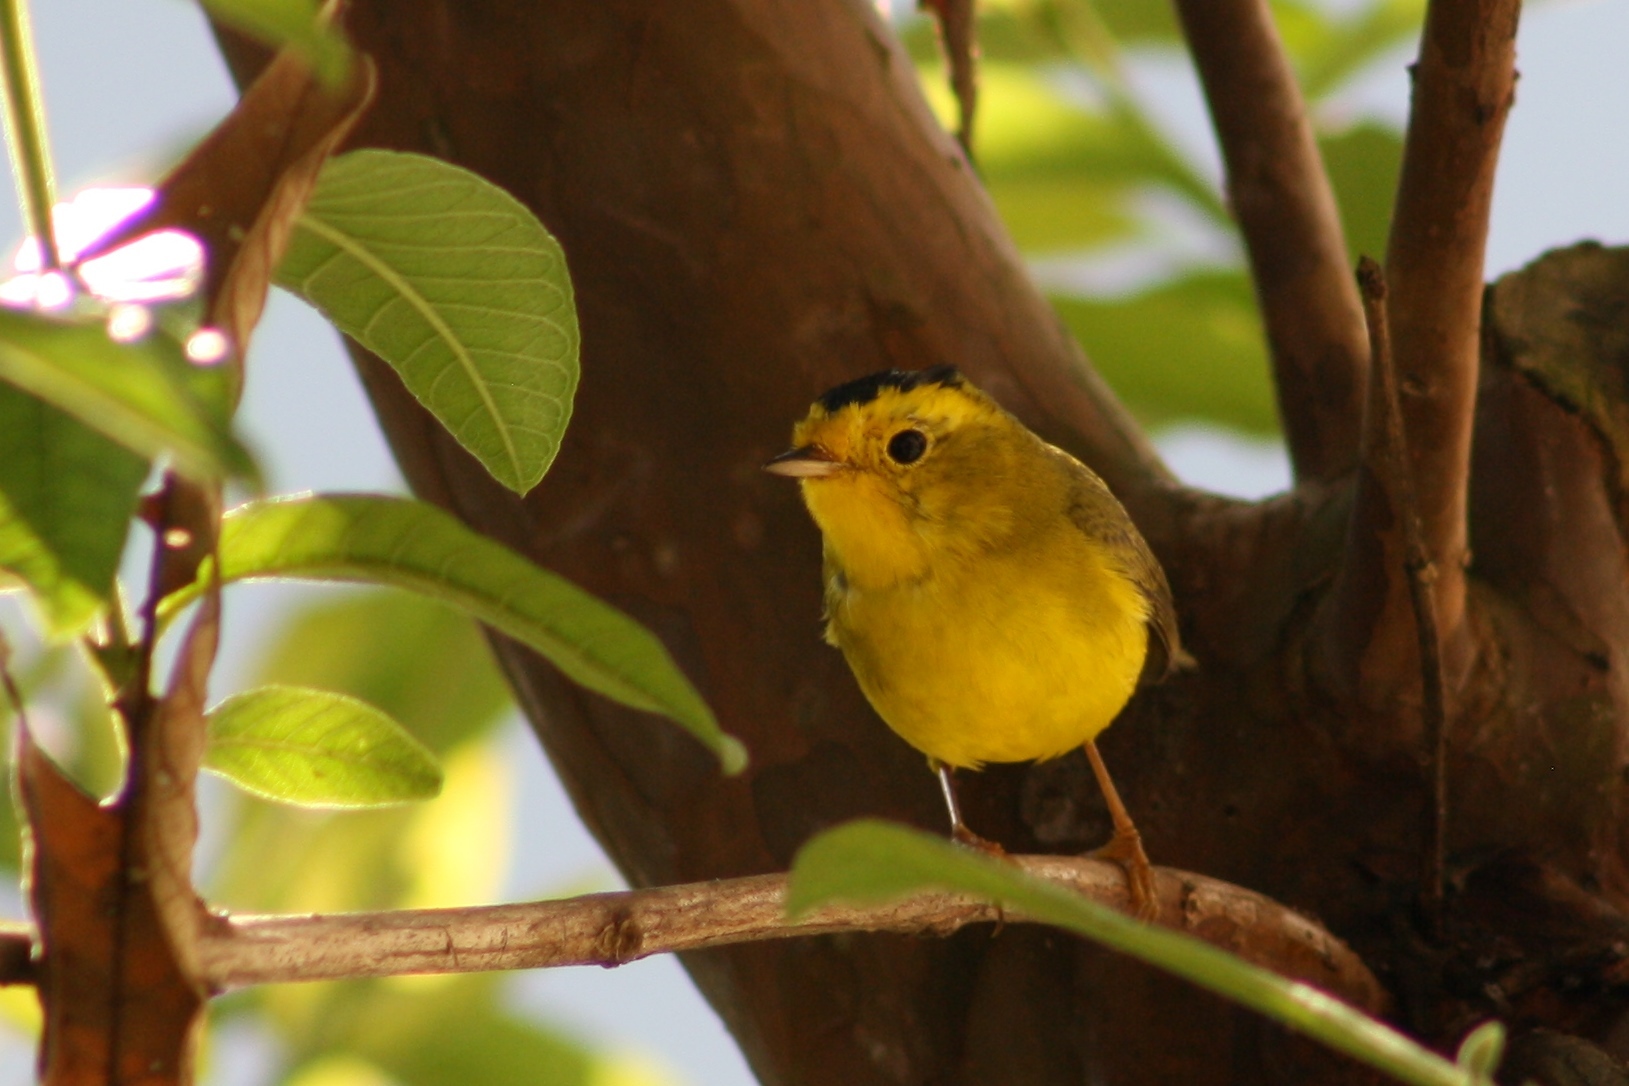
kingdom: Animalia
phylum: Chordata
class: Aves
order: Passeriformes
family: Parulidae
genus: Cardellina
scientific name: Cardellina pusilla
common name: Wilson's warbler
